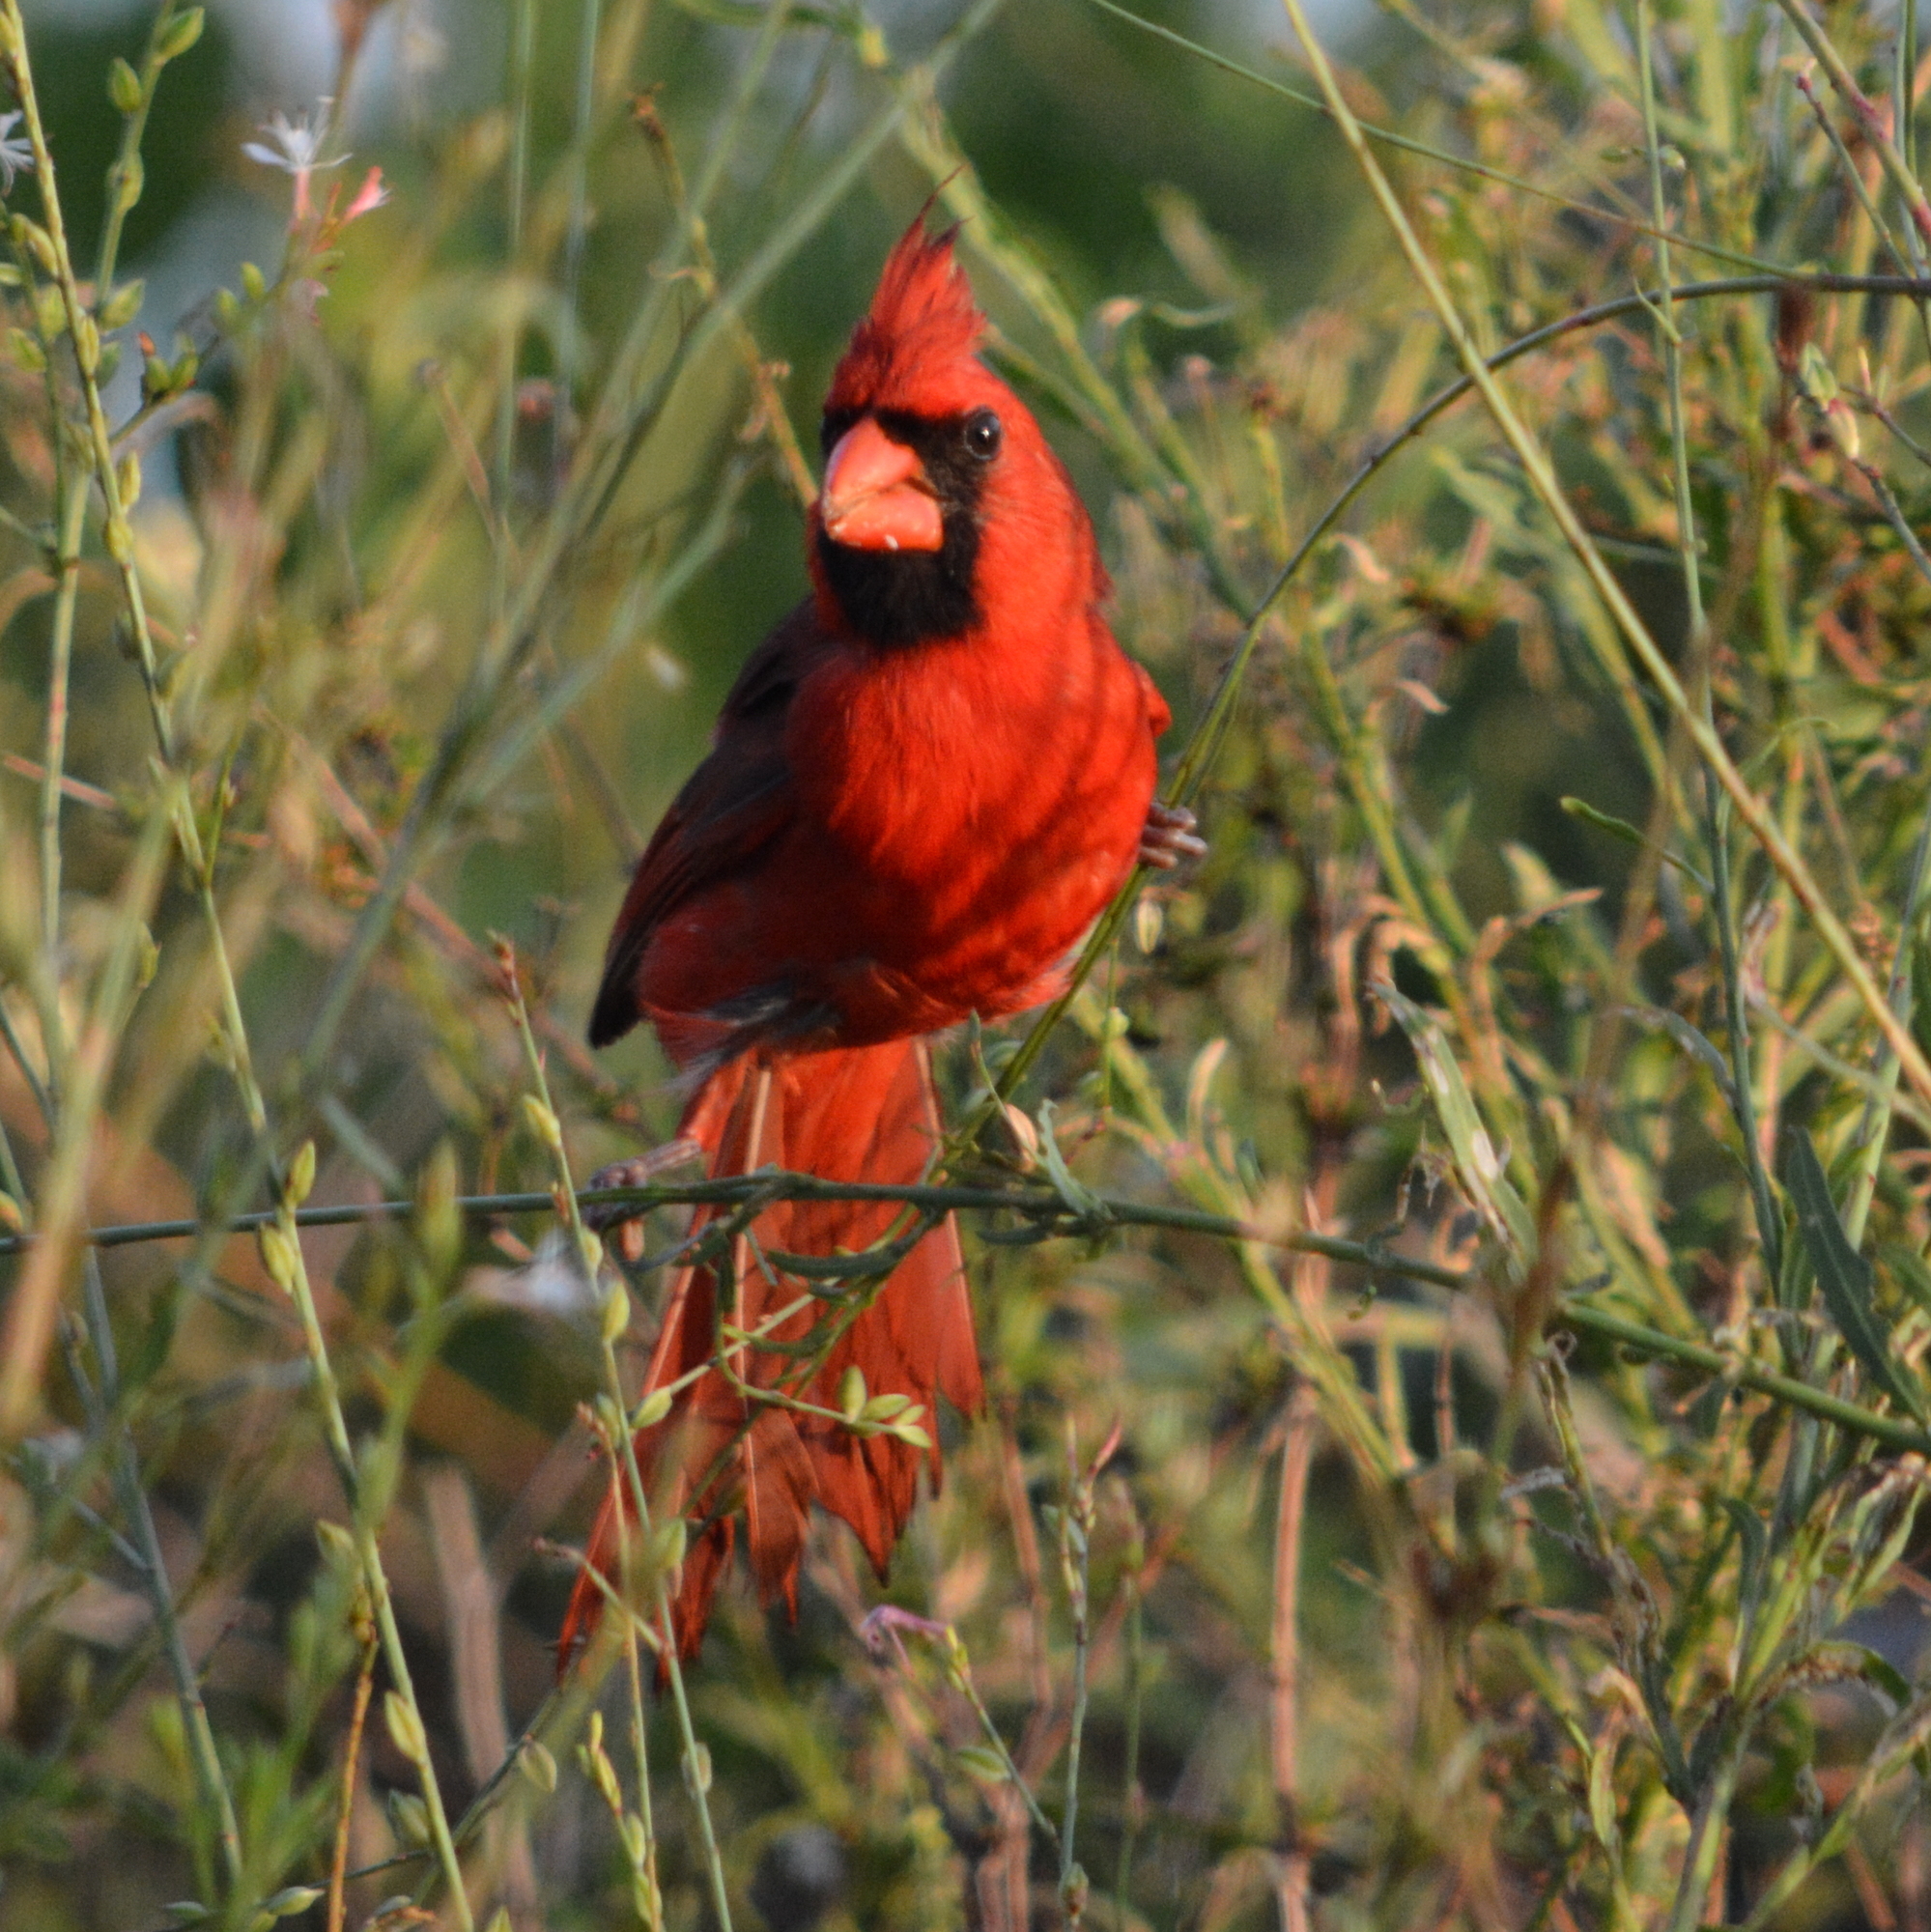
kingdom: Animalia
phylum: Chordata
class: Aves
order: Passeriformes
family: Cardinalidae
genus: Cardinalis
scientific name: Cardinalis cardinalis
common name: Northern cardinal
